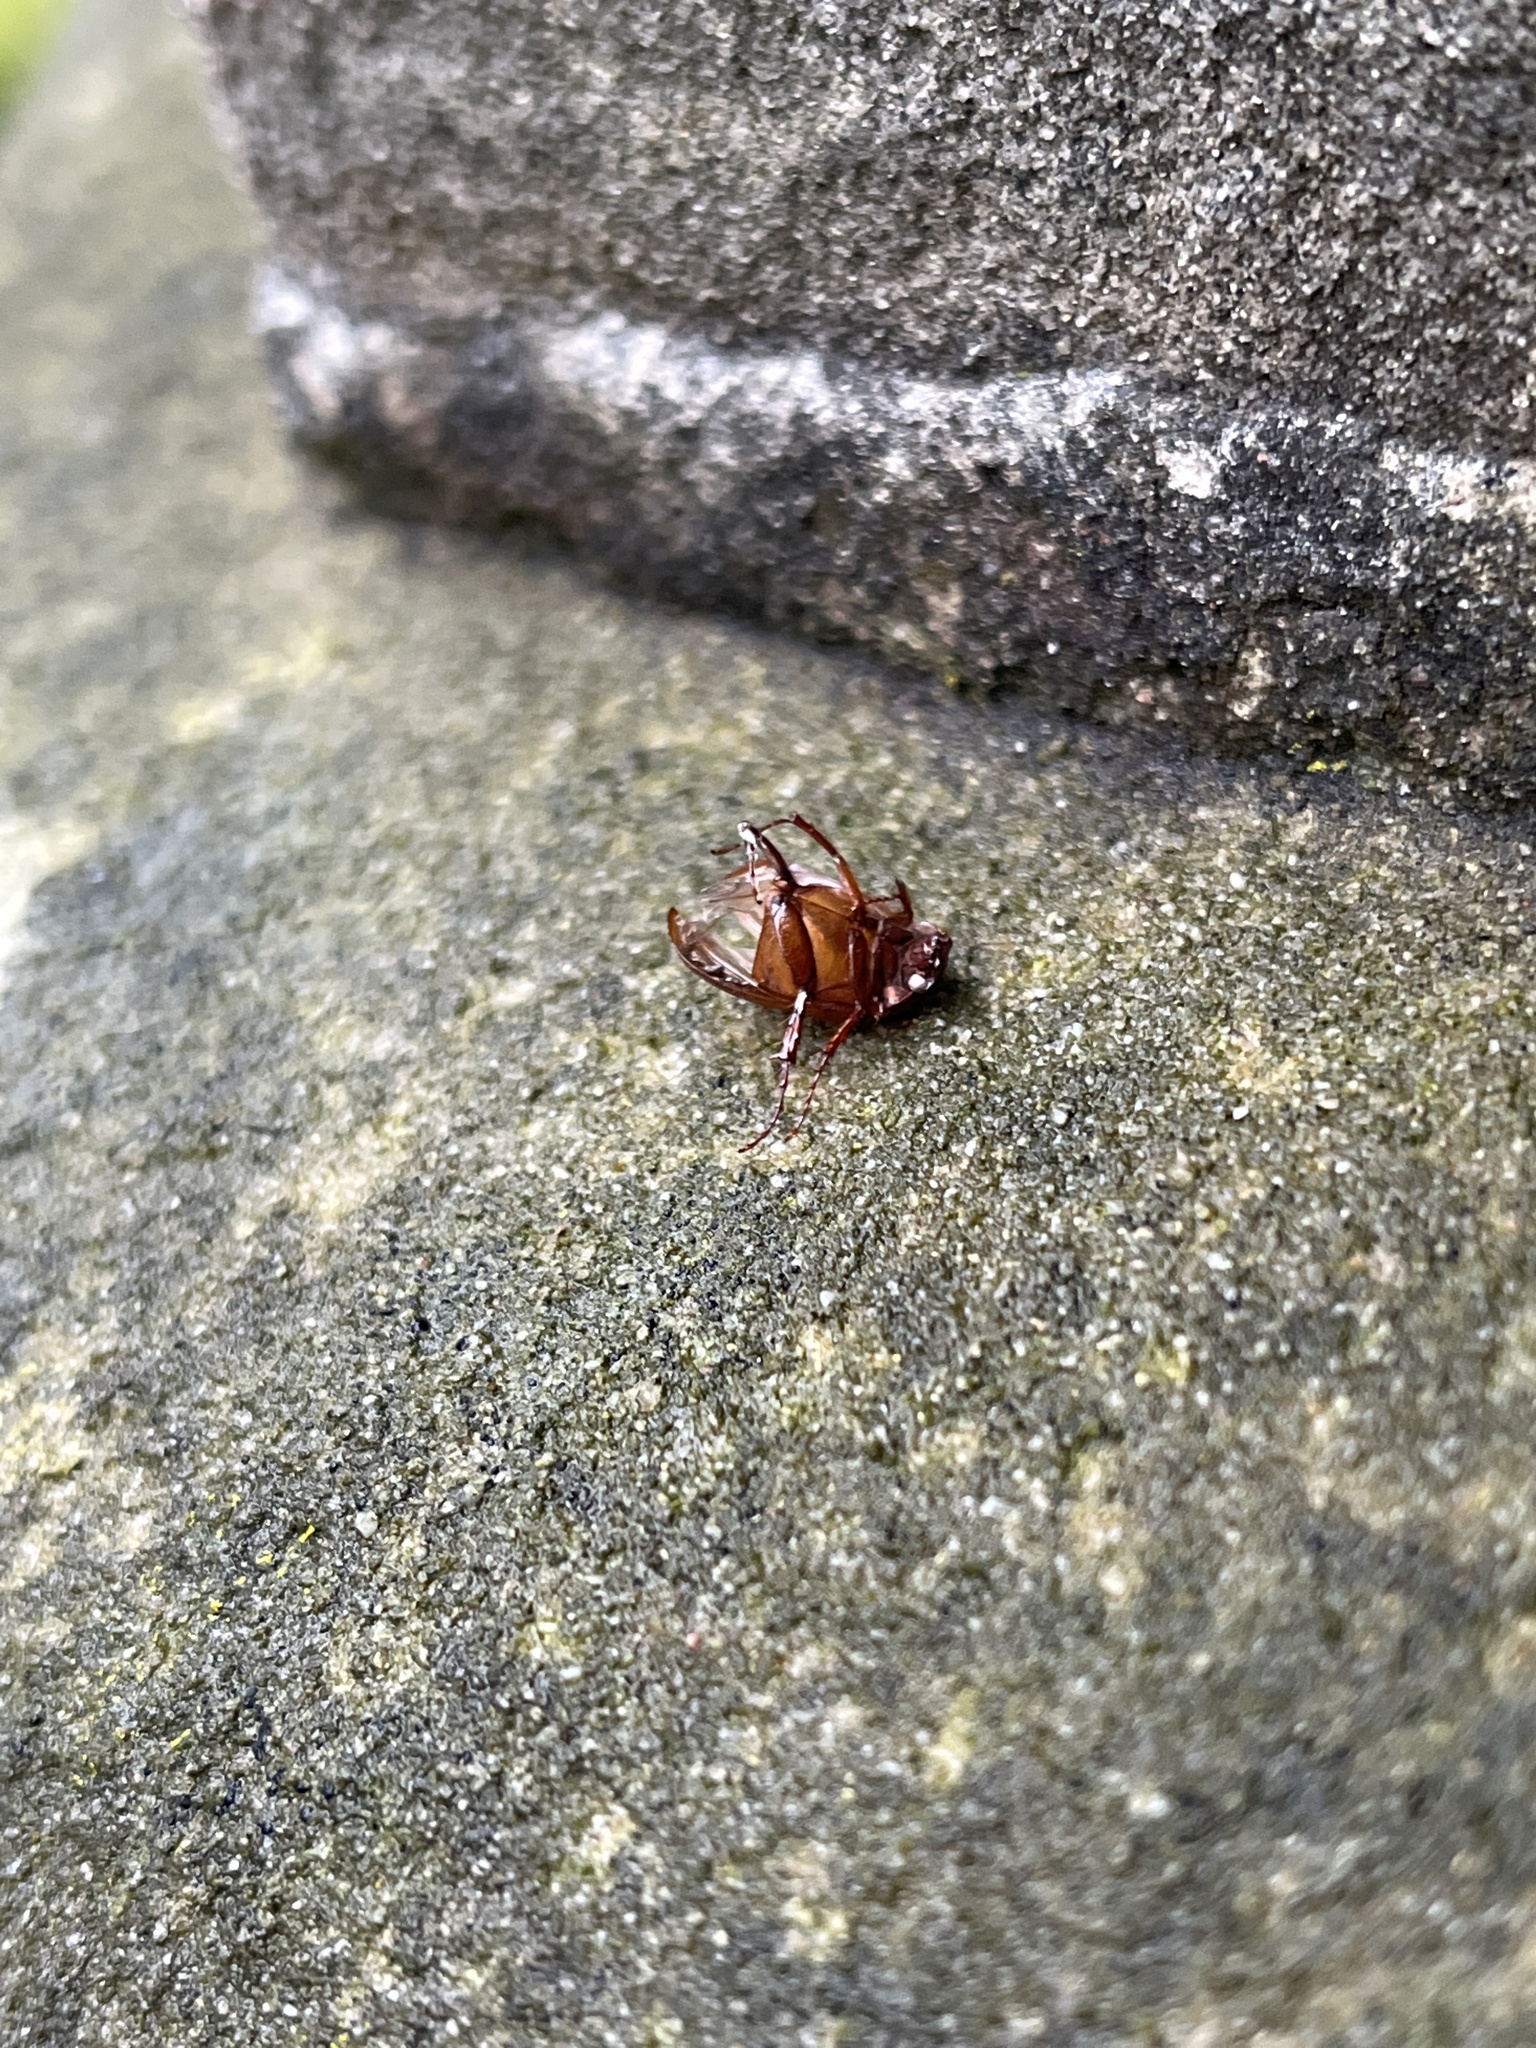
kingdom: Animalia
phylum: Arthropoda
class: Insecta
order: Coleoptera
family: Scarabaeidae
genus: Serica
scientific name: Serica brunnea
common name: Brown chafer
